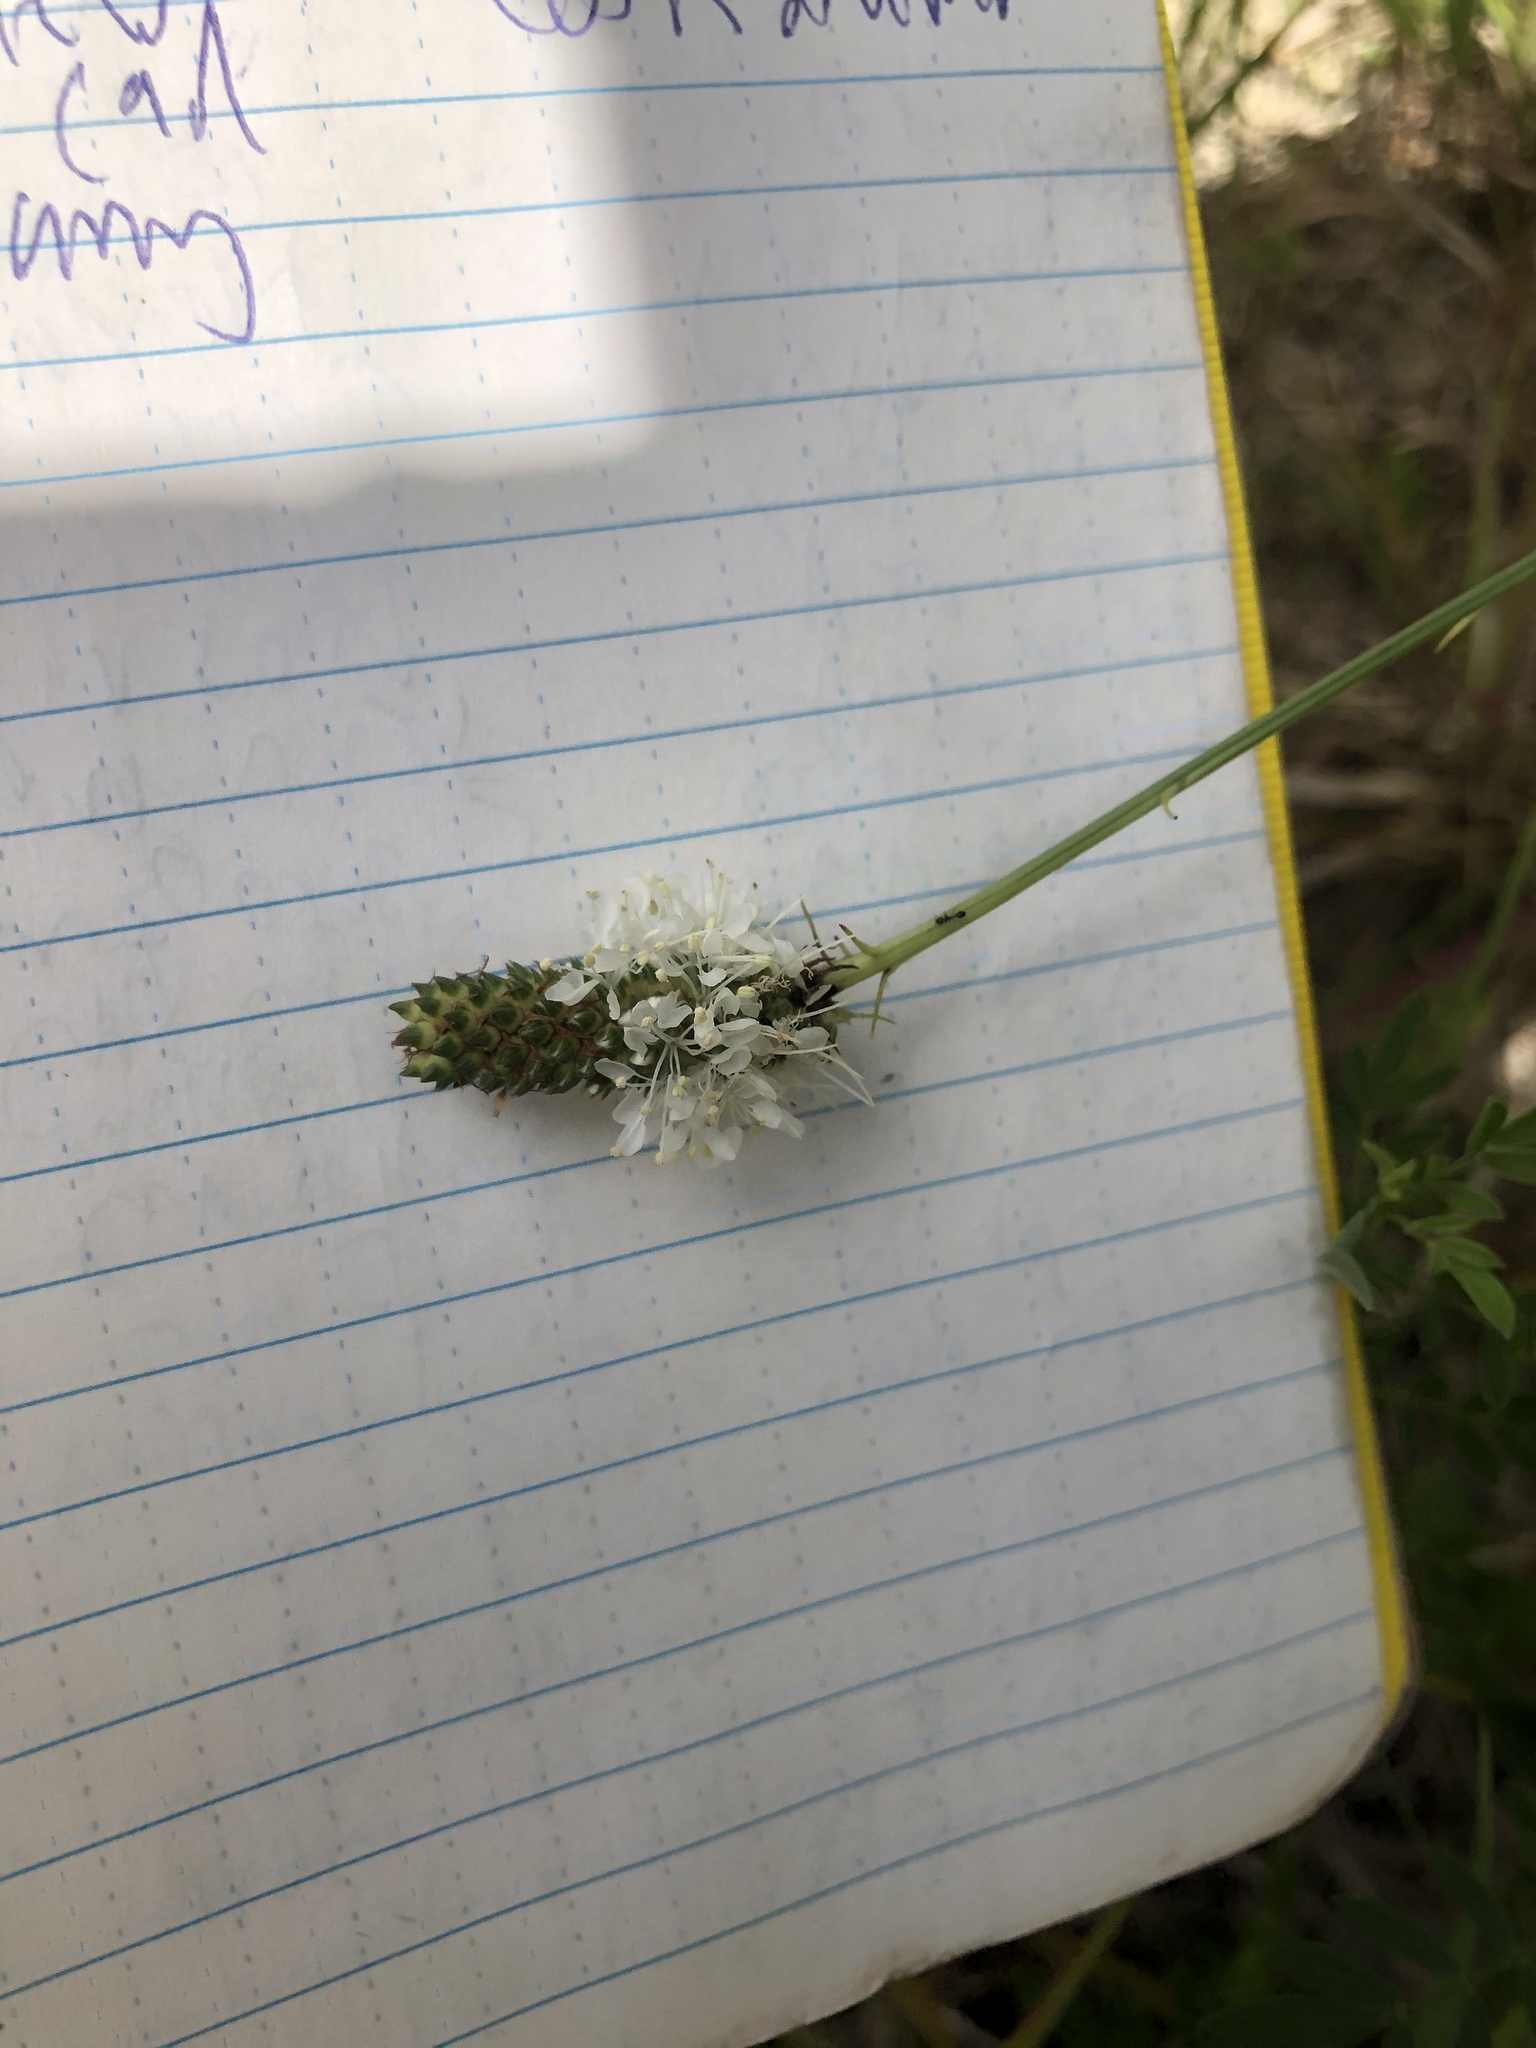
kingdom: Plantae
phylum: Tracheophyta
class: Magnoliopsida
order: Fabales
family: Fabaceae
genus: Dalea
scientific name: Dalea candida
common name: White prairie-clover
